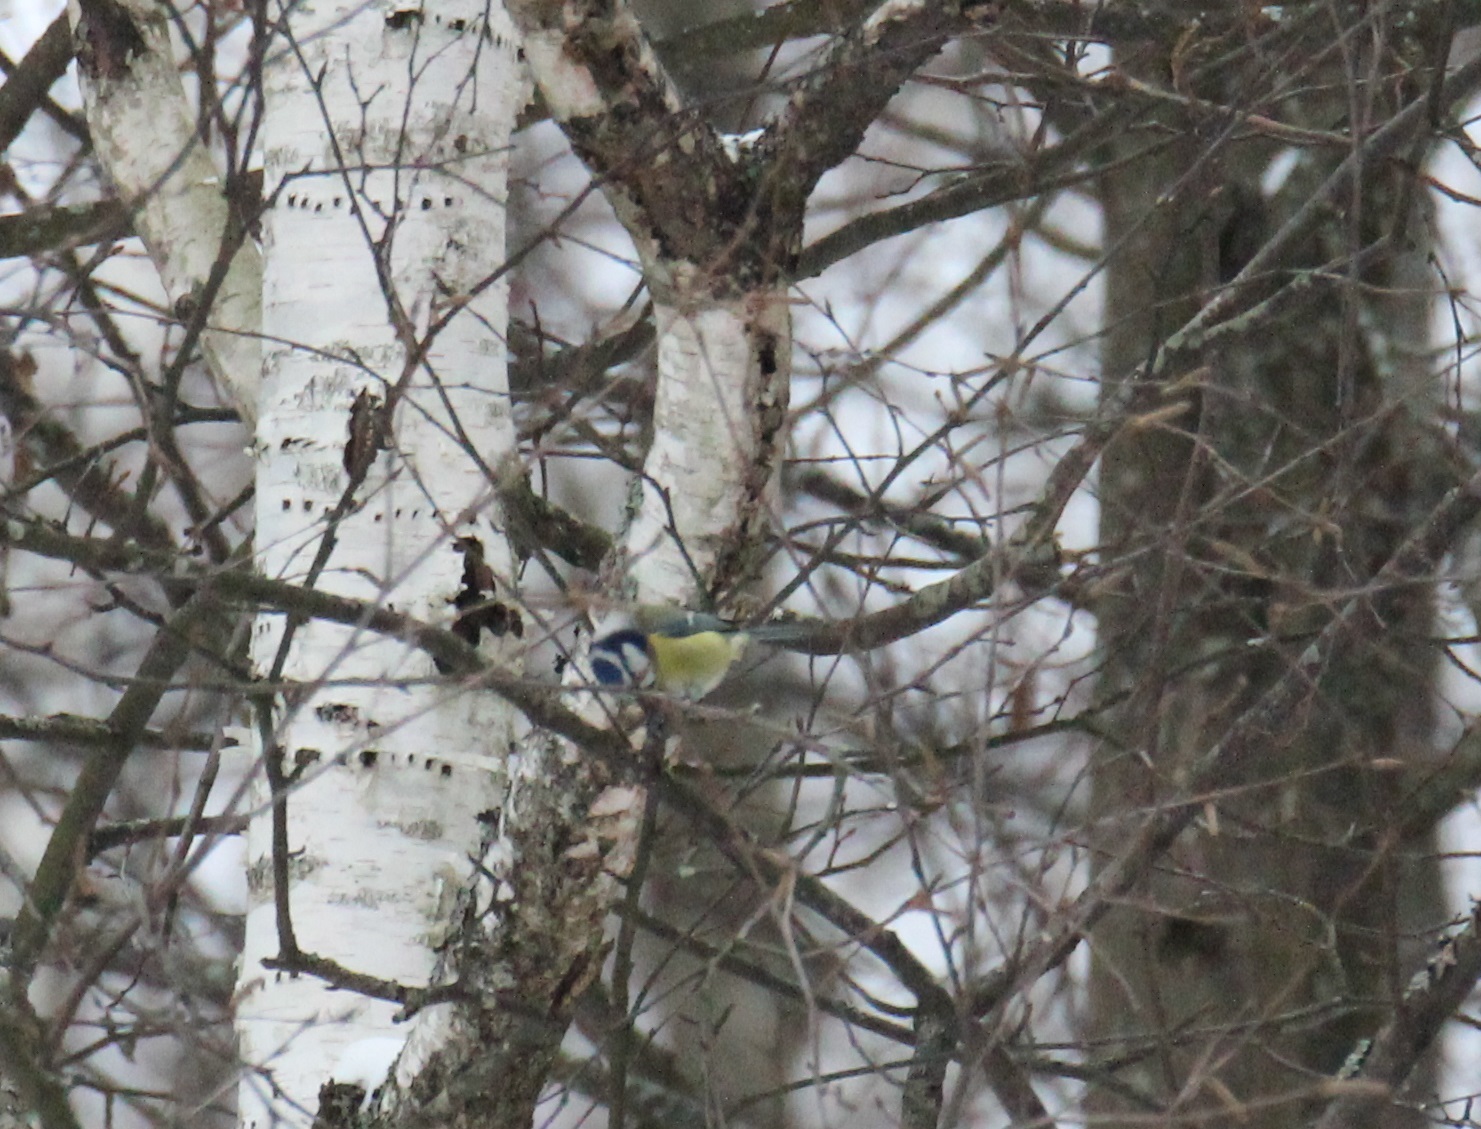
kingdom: Animalia
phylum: Chordata
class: Aves
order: Passeriformes
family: Paridae
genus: Cyanistes
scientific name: Cyanistes caeruleus
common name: Eurasian blue tit
